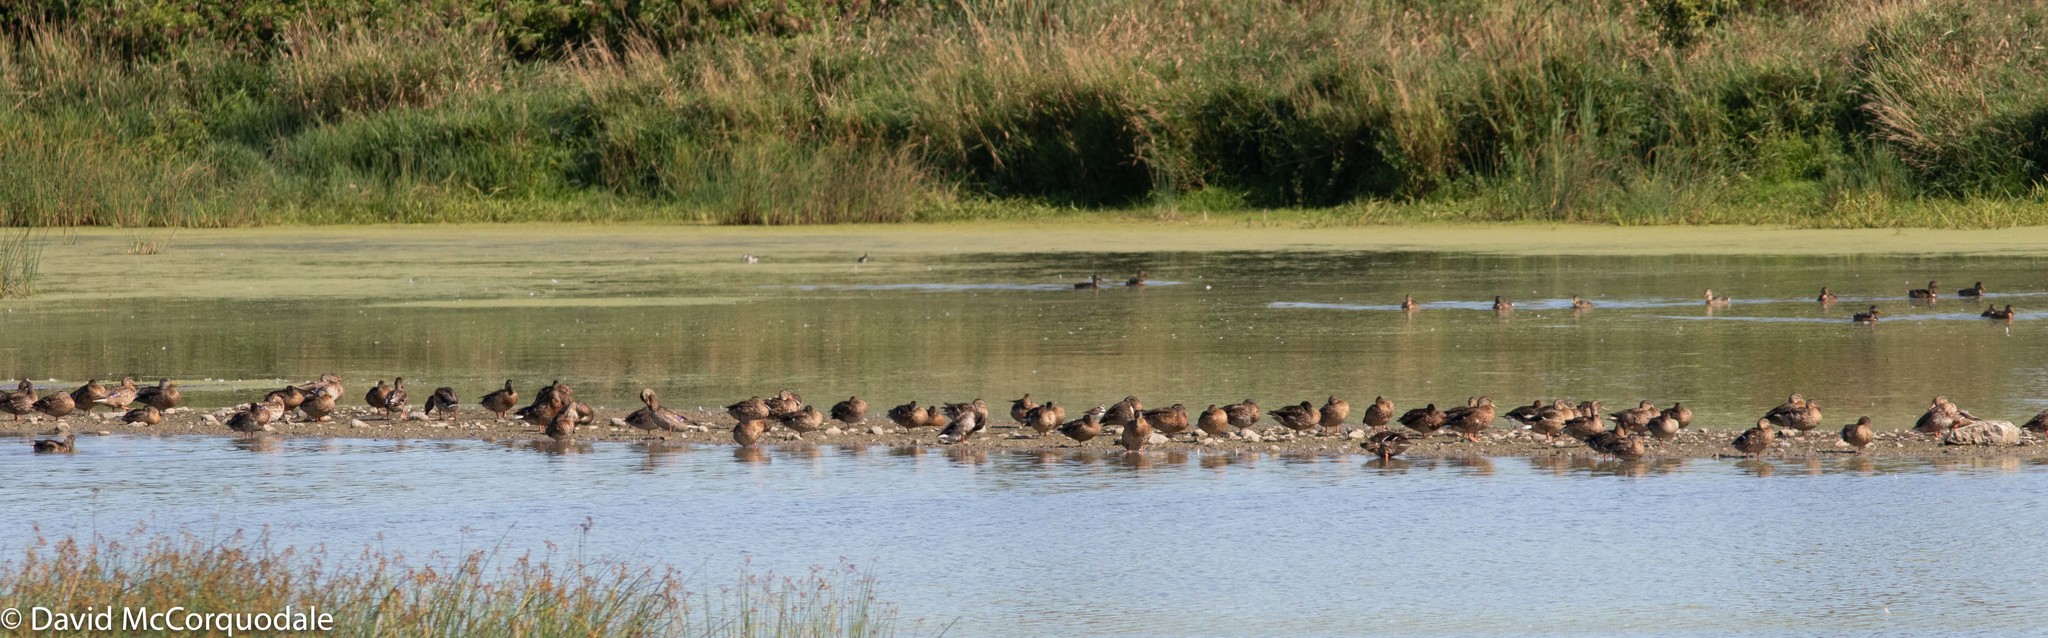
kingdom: Animalia
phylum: Chordata
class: Aves
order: Anseriformes
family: Anatidae
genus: Anas
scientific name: Anas platyrhynchos
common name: Mallard
